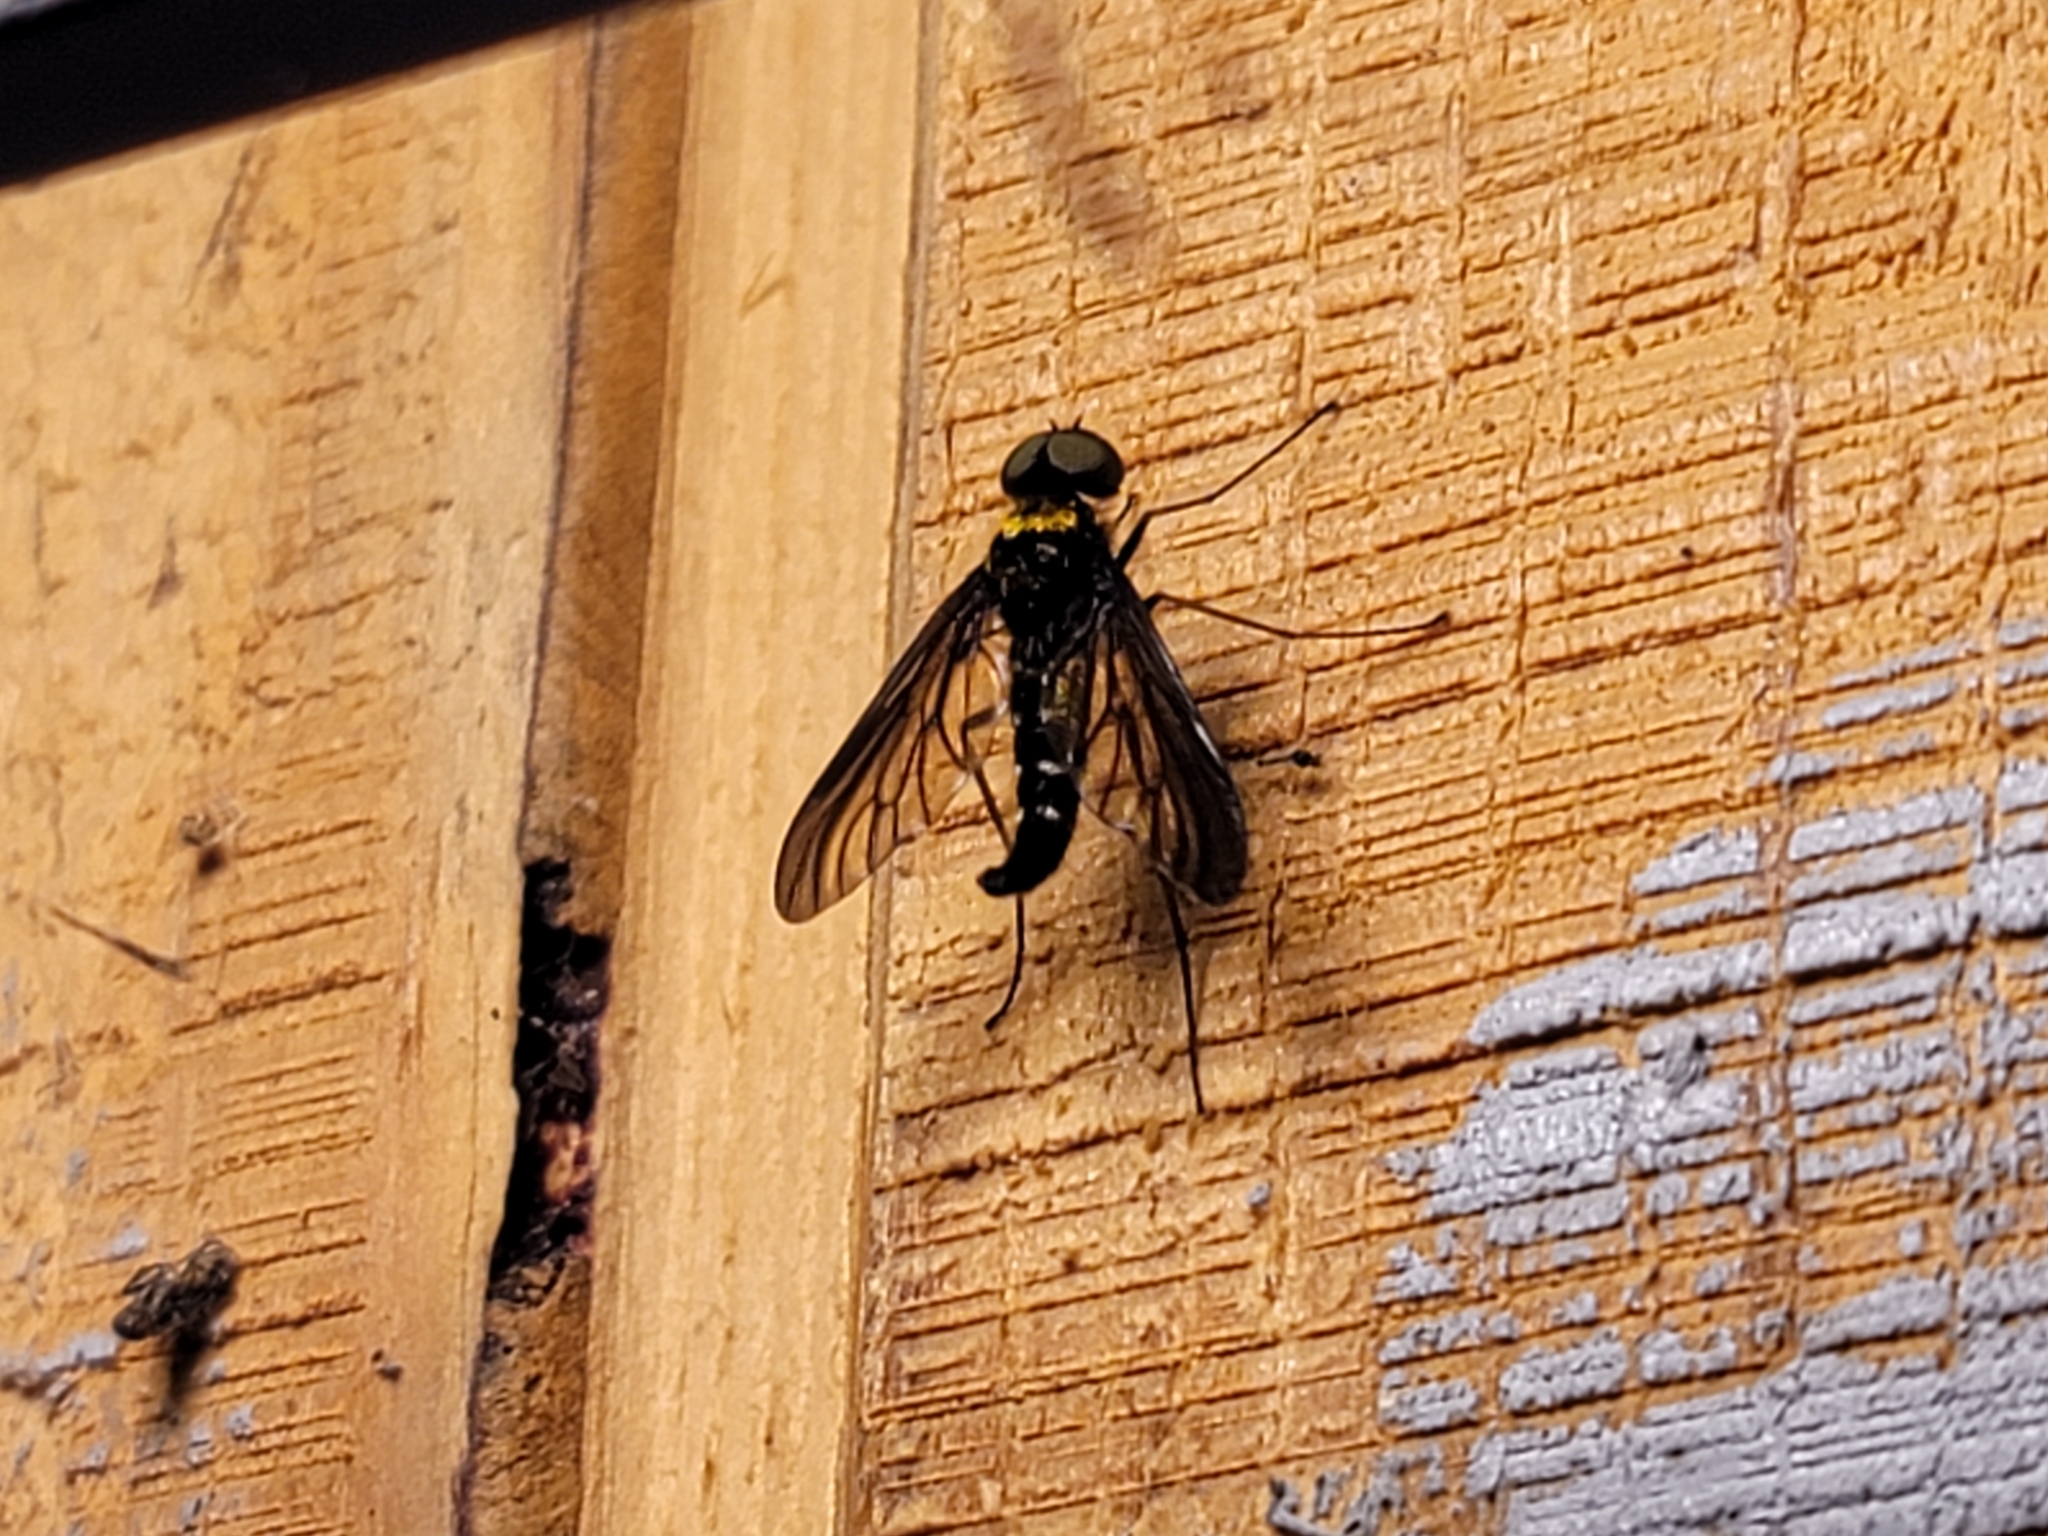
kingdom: Animalia
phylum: Arthropoda
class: Insecta
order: Diptera
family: Rhagionidae
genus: Chrysopilus
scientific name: Chrysopilus thoracicus
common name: Golden-backed snipe fly
